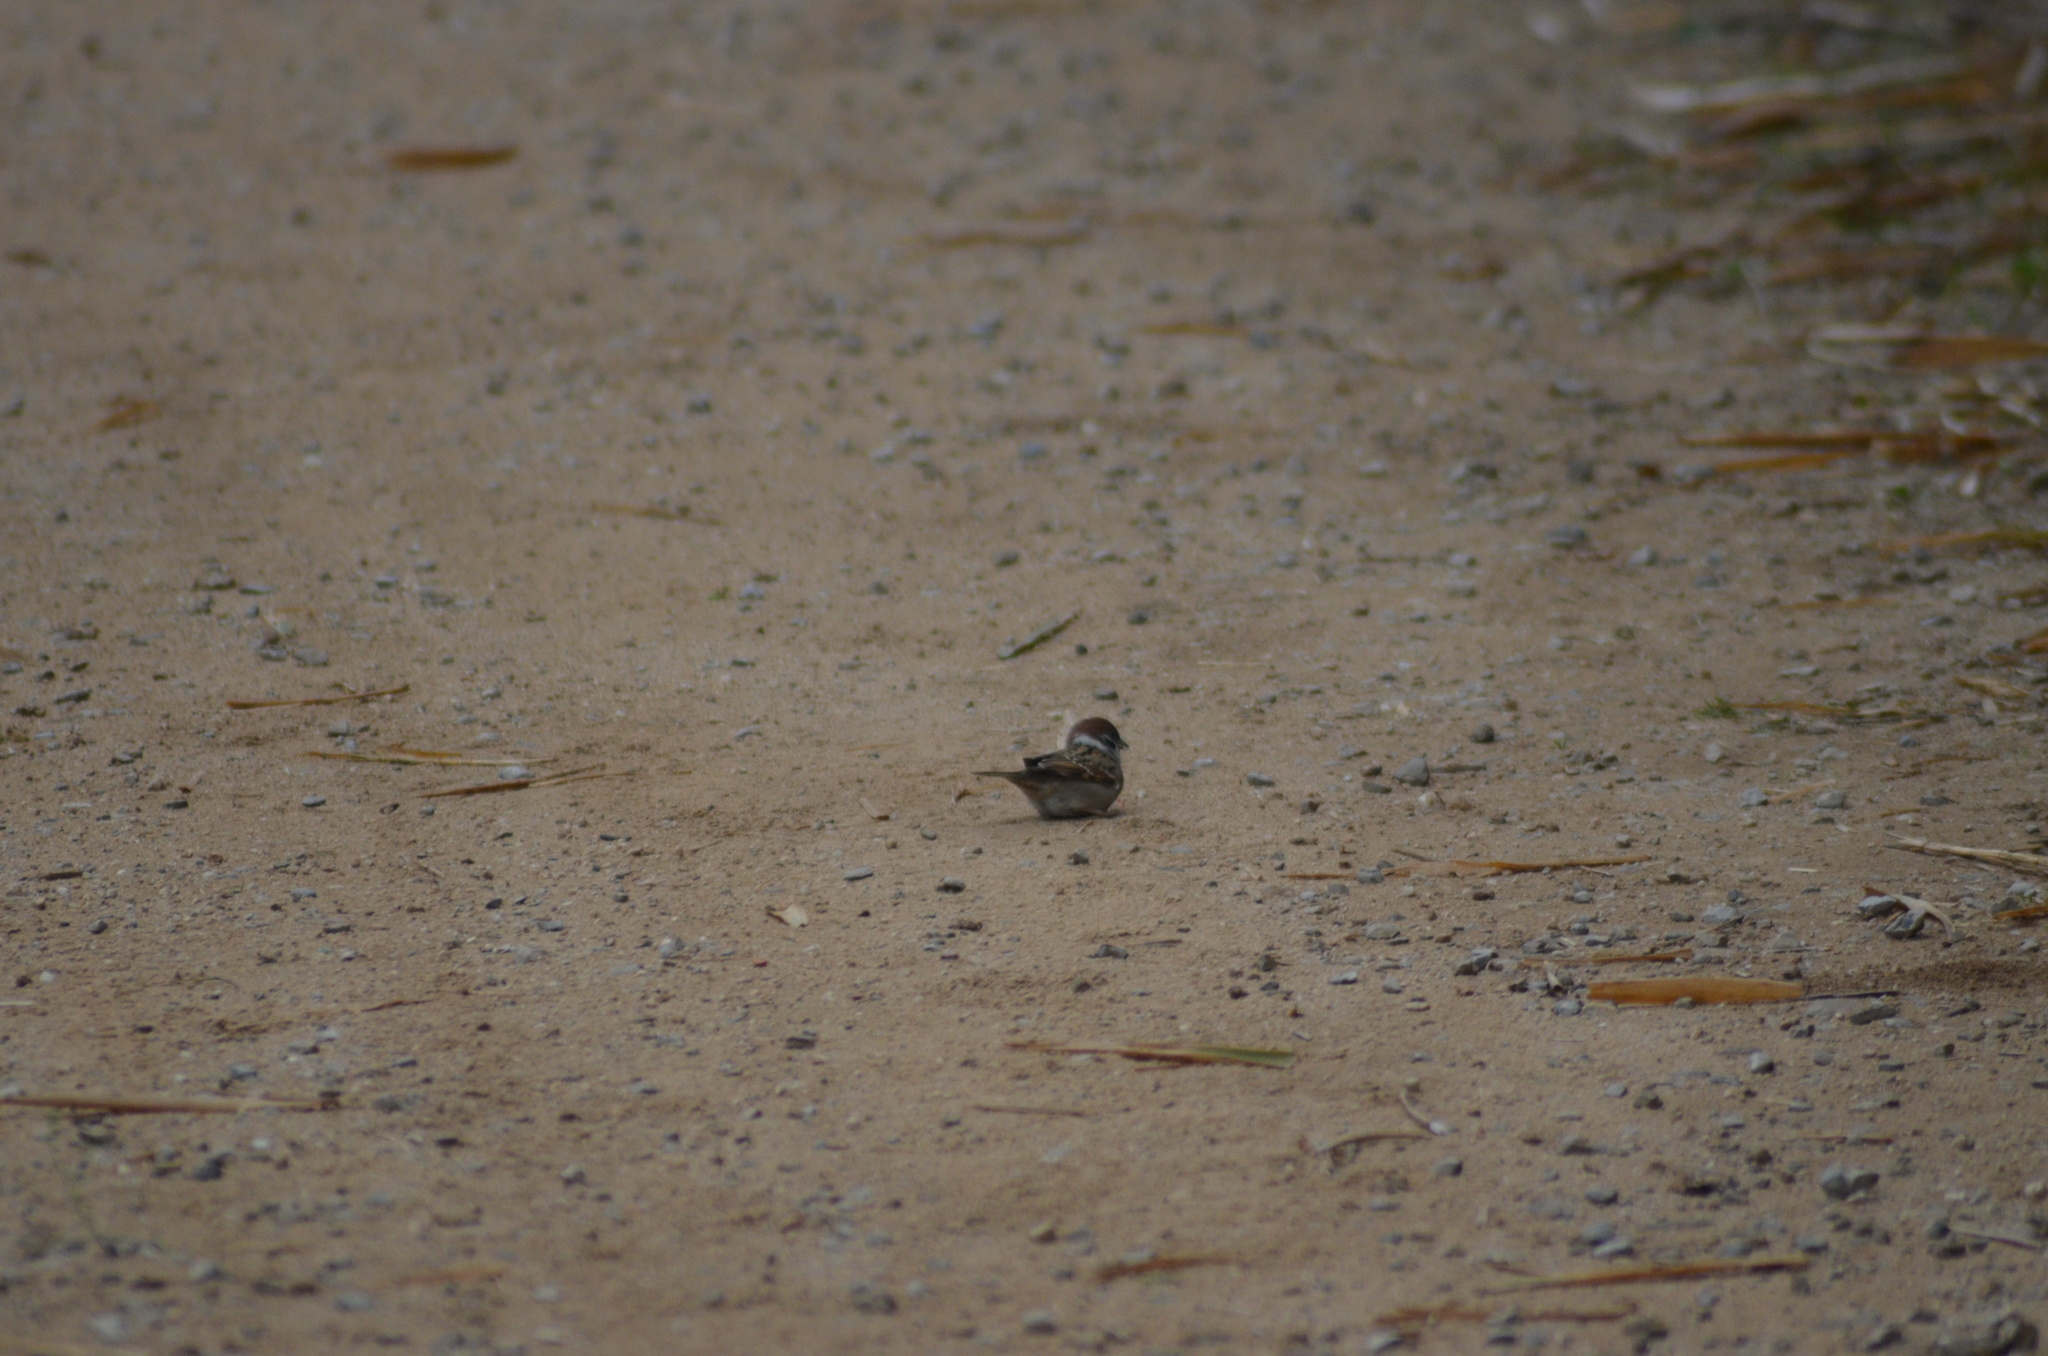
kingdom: Animalia
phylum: Chordata
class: Aves
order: Passeriformes
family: Passeridae
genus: Passer
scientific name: Passer montanus
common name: Eurasian tree sparrow
